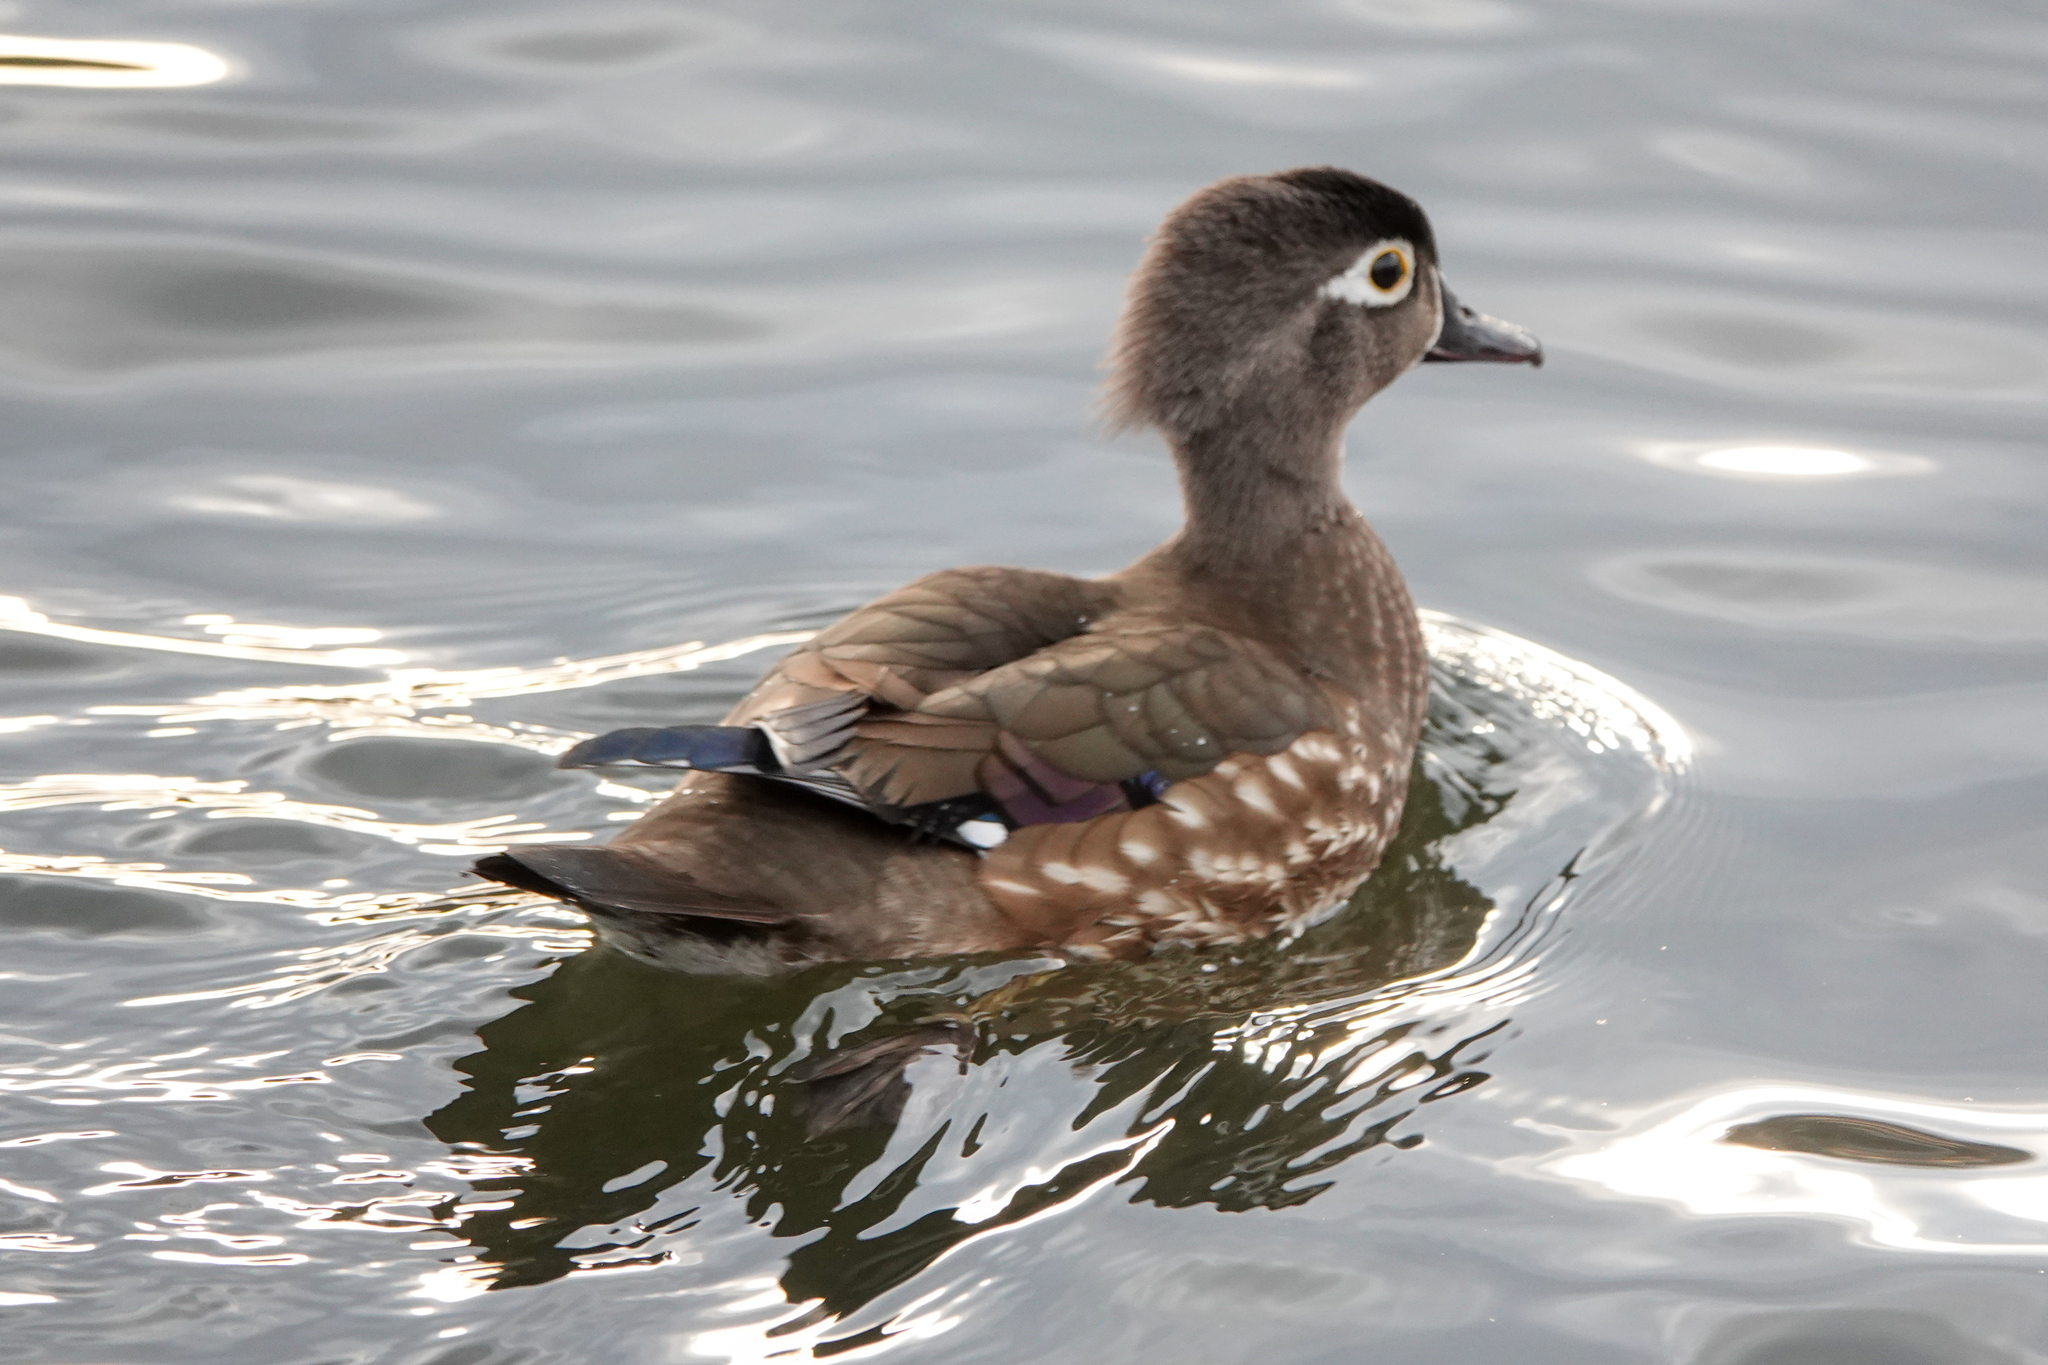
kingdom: Animalia
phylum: Chordata
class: Aves
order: Anseriformes
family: Anatidae
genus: Aix
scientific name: Aix sponsa
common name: Wood duck
